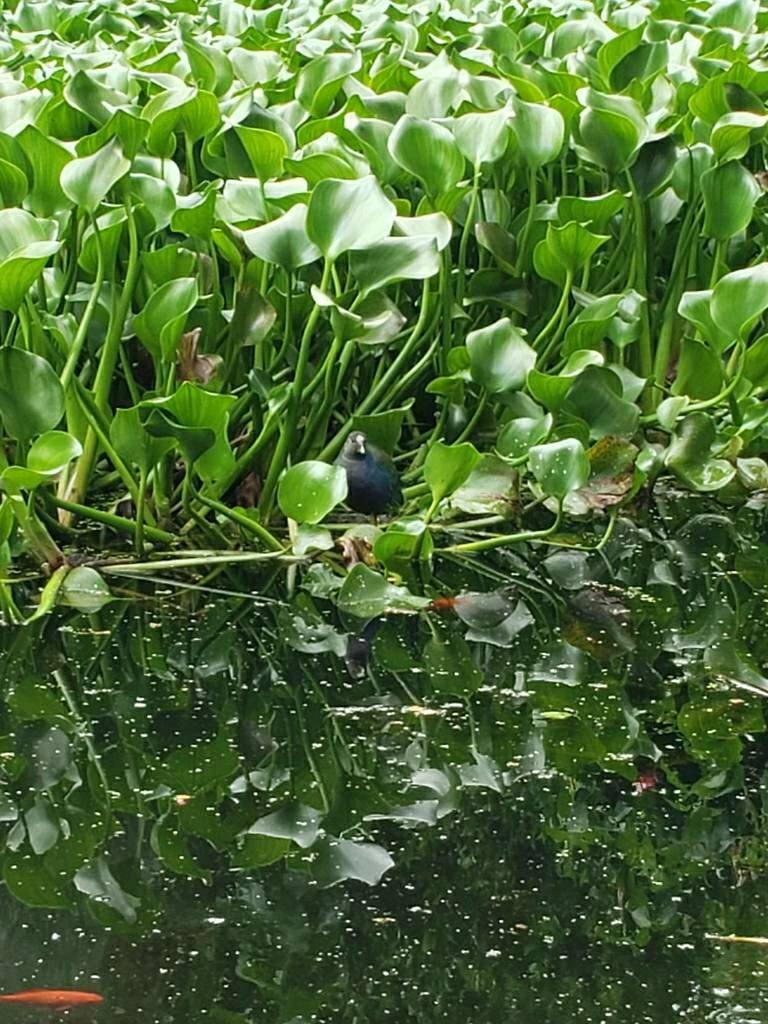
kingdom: Animalia
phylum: Chordata
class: Aves
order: Gruiformes
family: Rallidae
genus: Porphyrio
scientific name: Porphyrio martinica
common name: Purple gallinule
